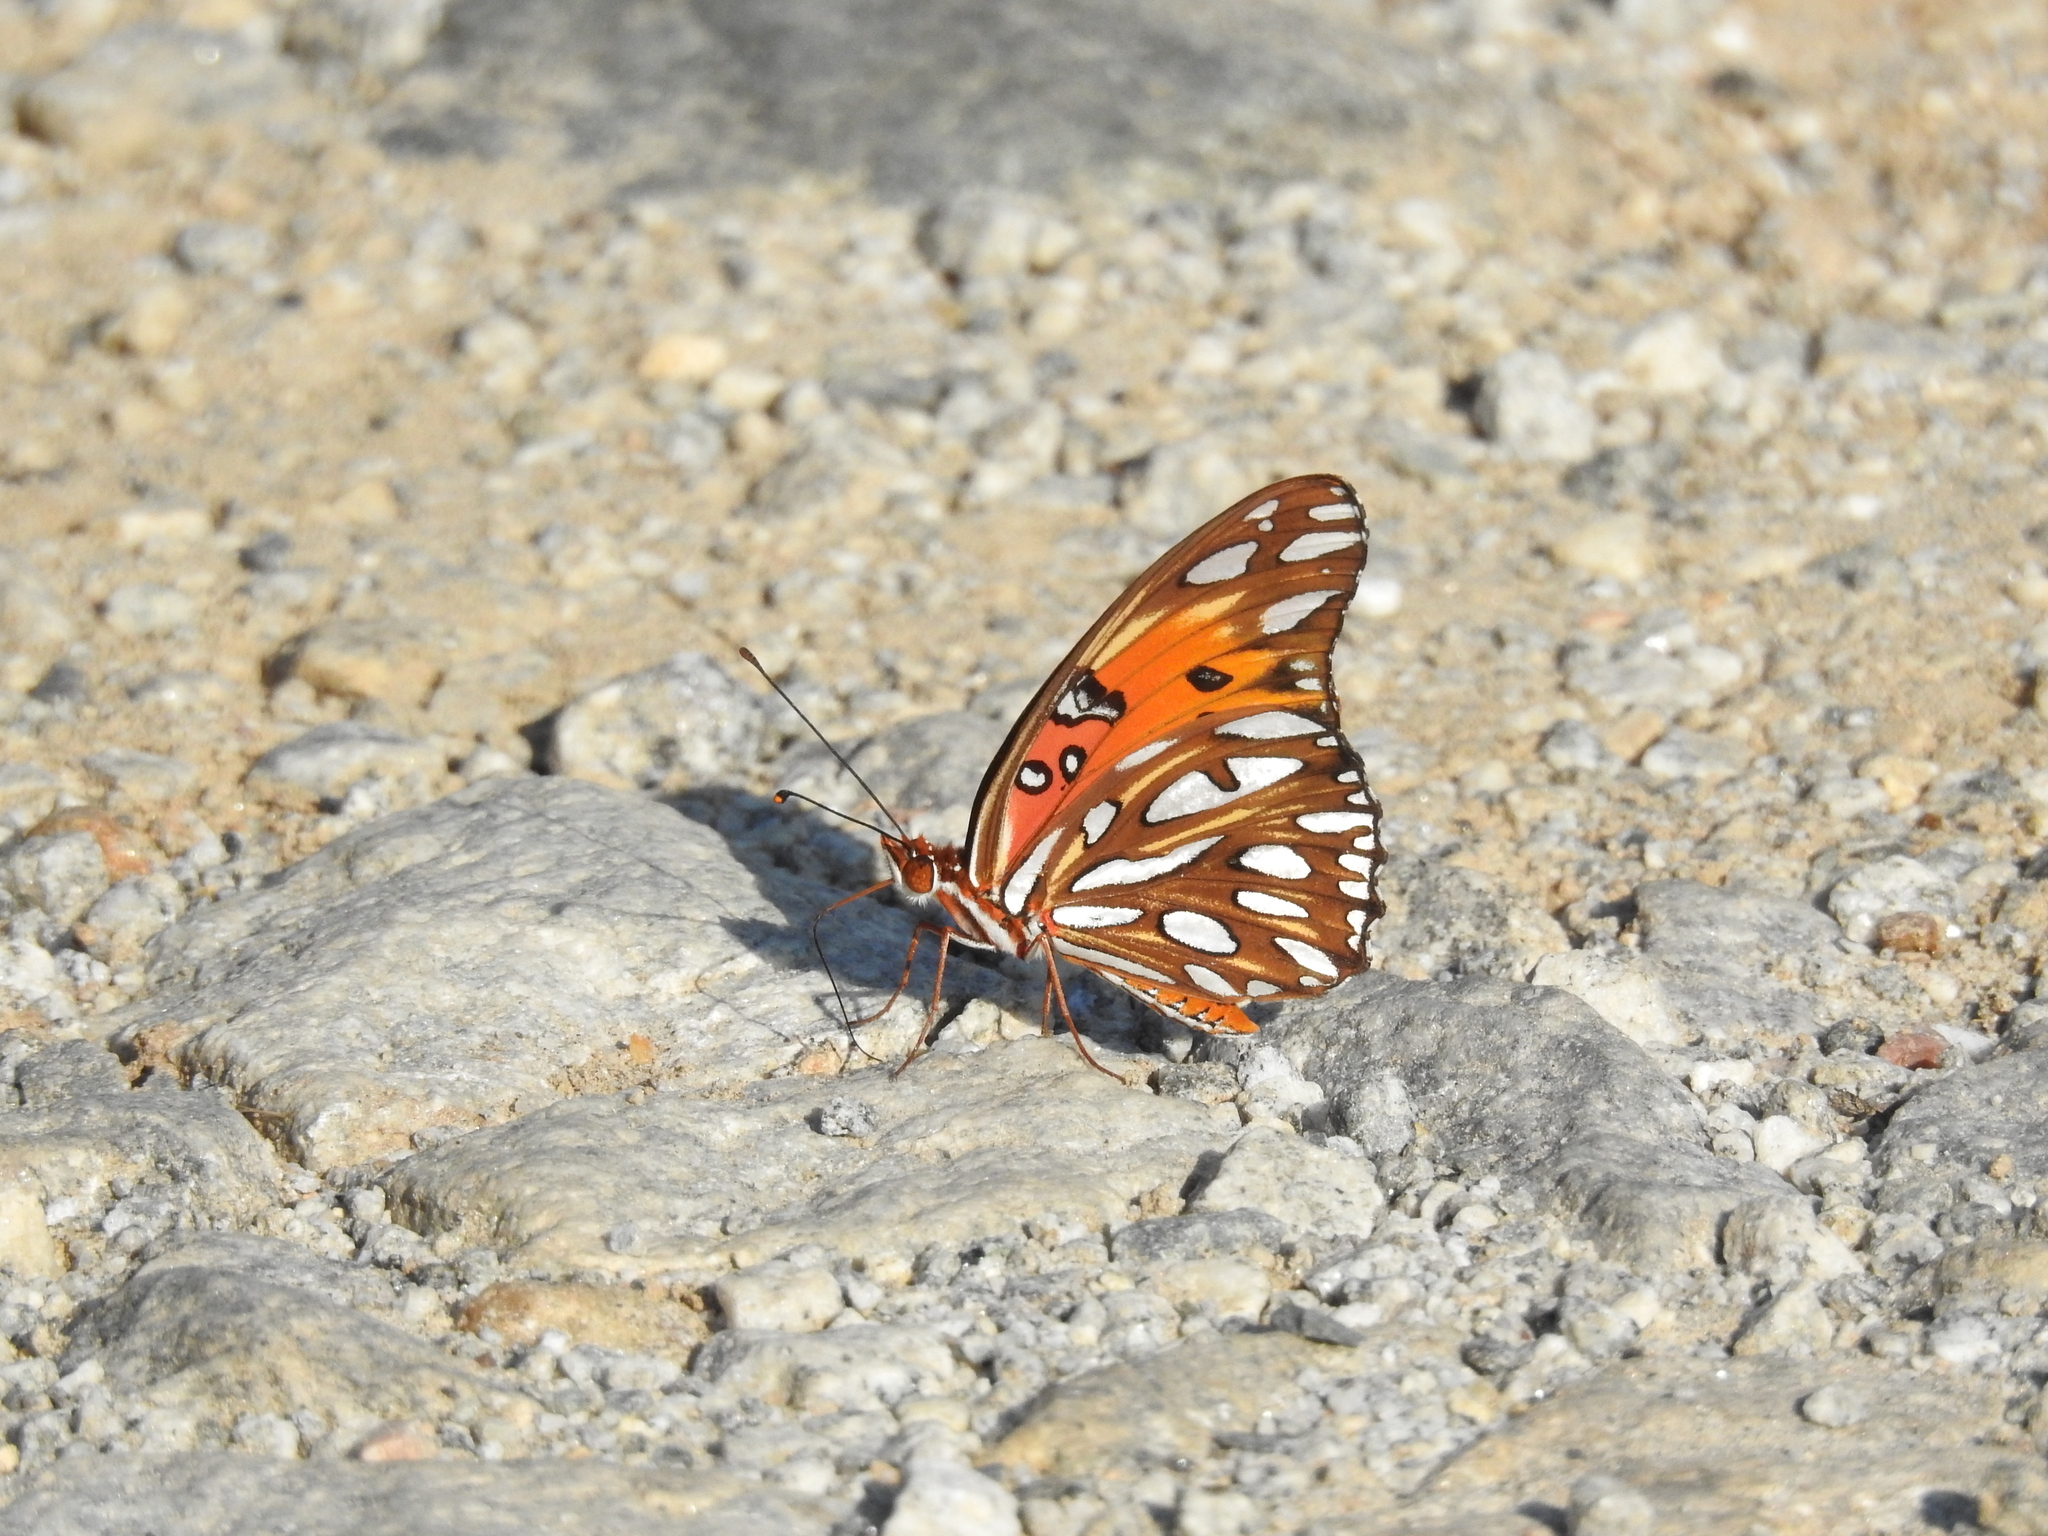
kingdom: Animalia
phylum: Arthropoda
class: Insecta
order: Lepidoptera
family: Nymphalidae
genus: Dione
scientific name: Dione vanillae
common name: Gulf fritillary
